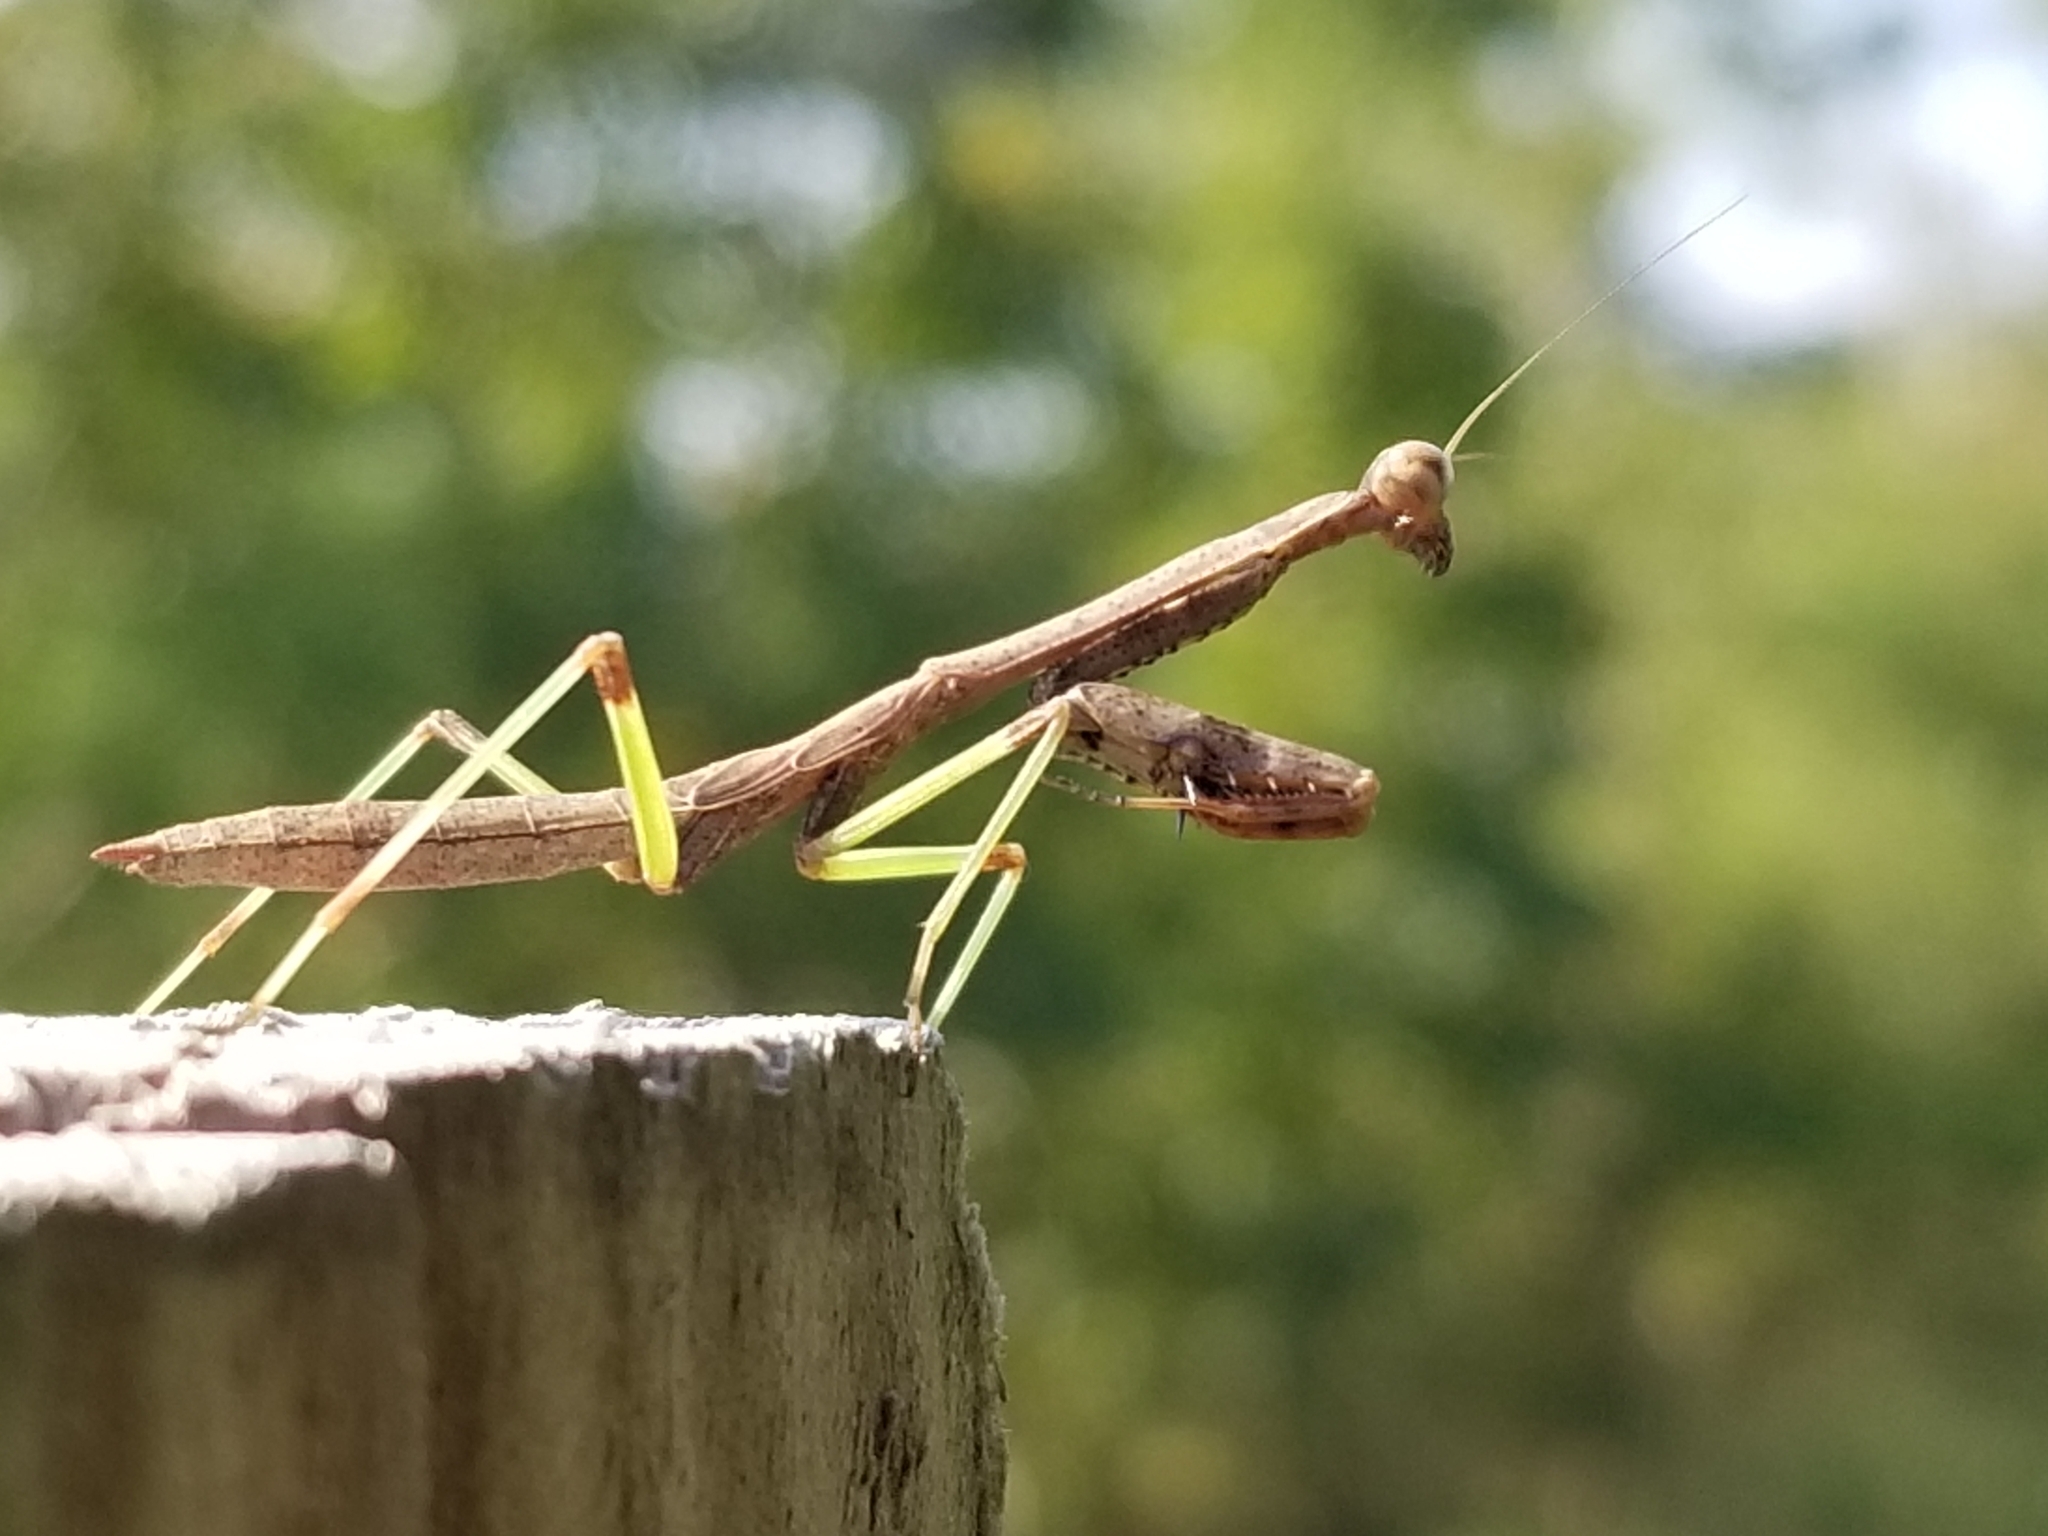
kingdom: Animalia
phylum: Arthropoda
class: Insecta
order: Mantodea
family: Mantidae
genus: Stagmomantis
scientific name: Stagmomantis carolina
